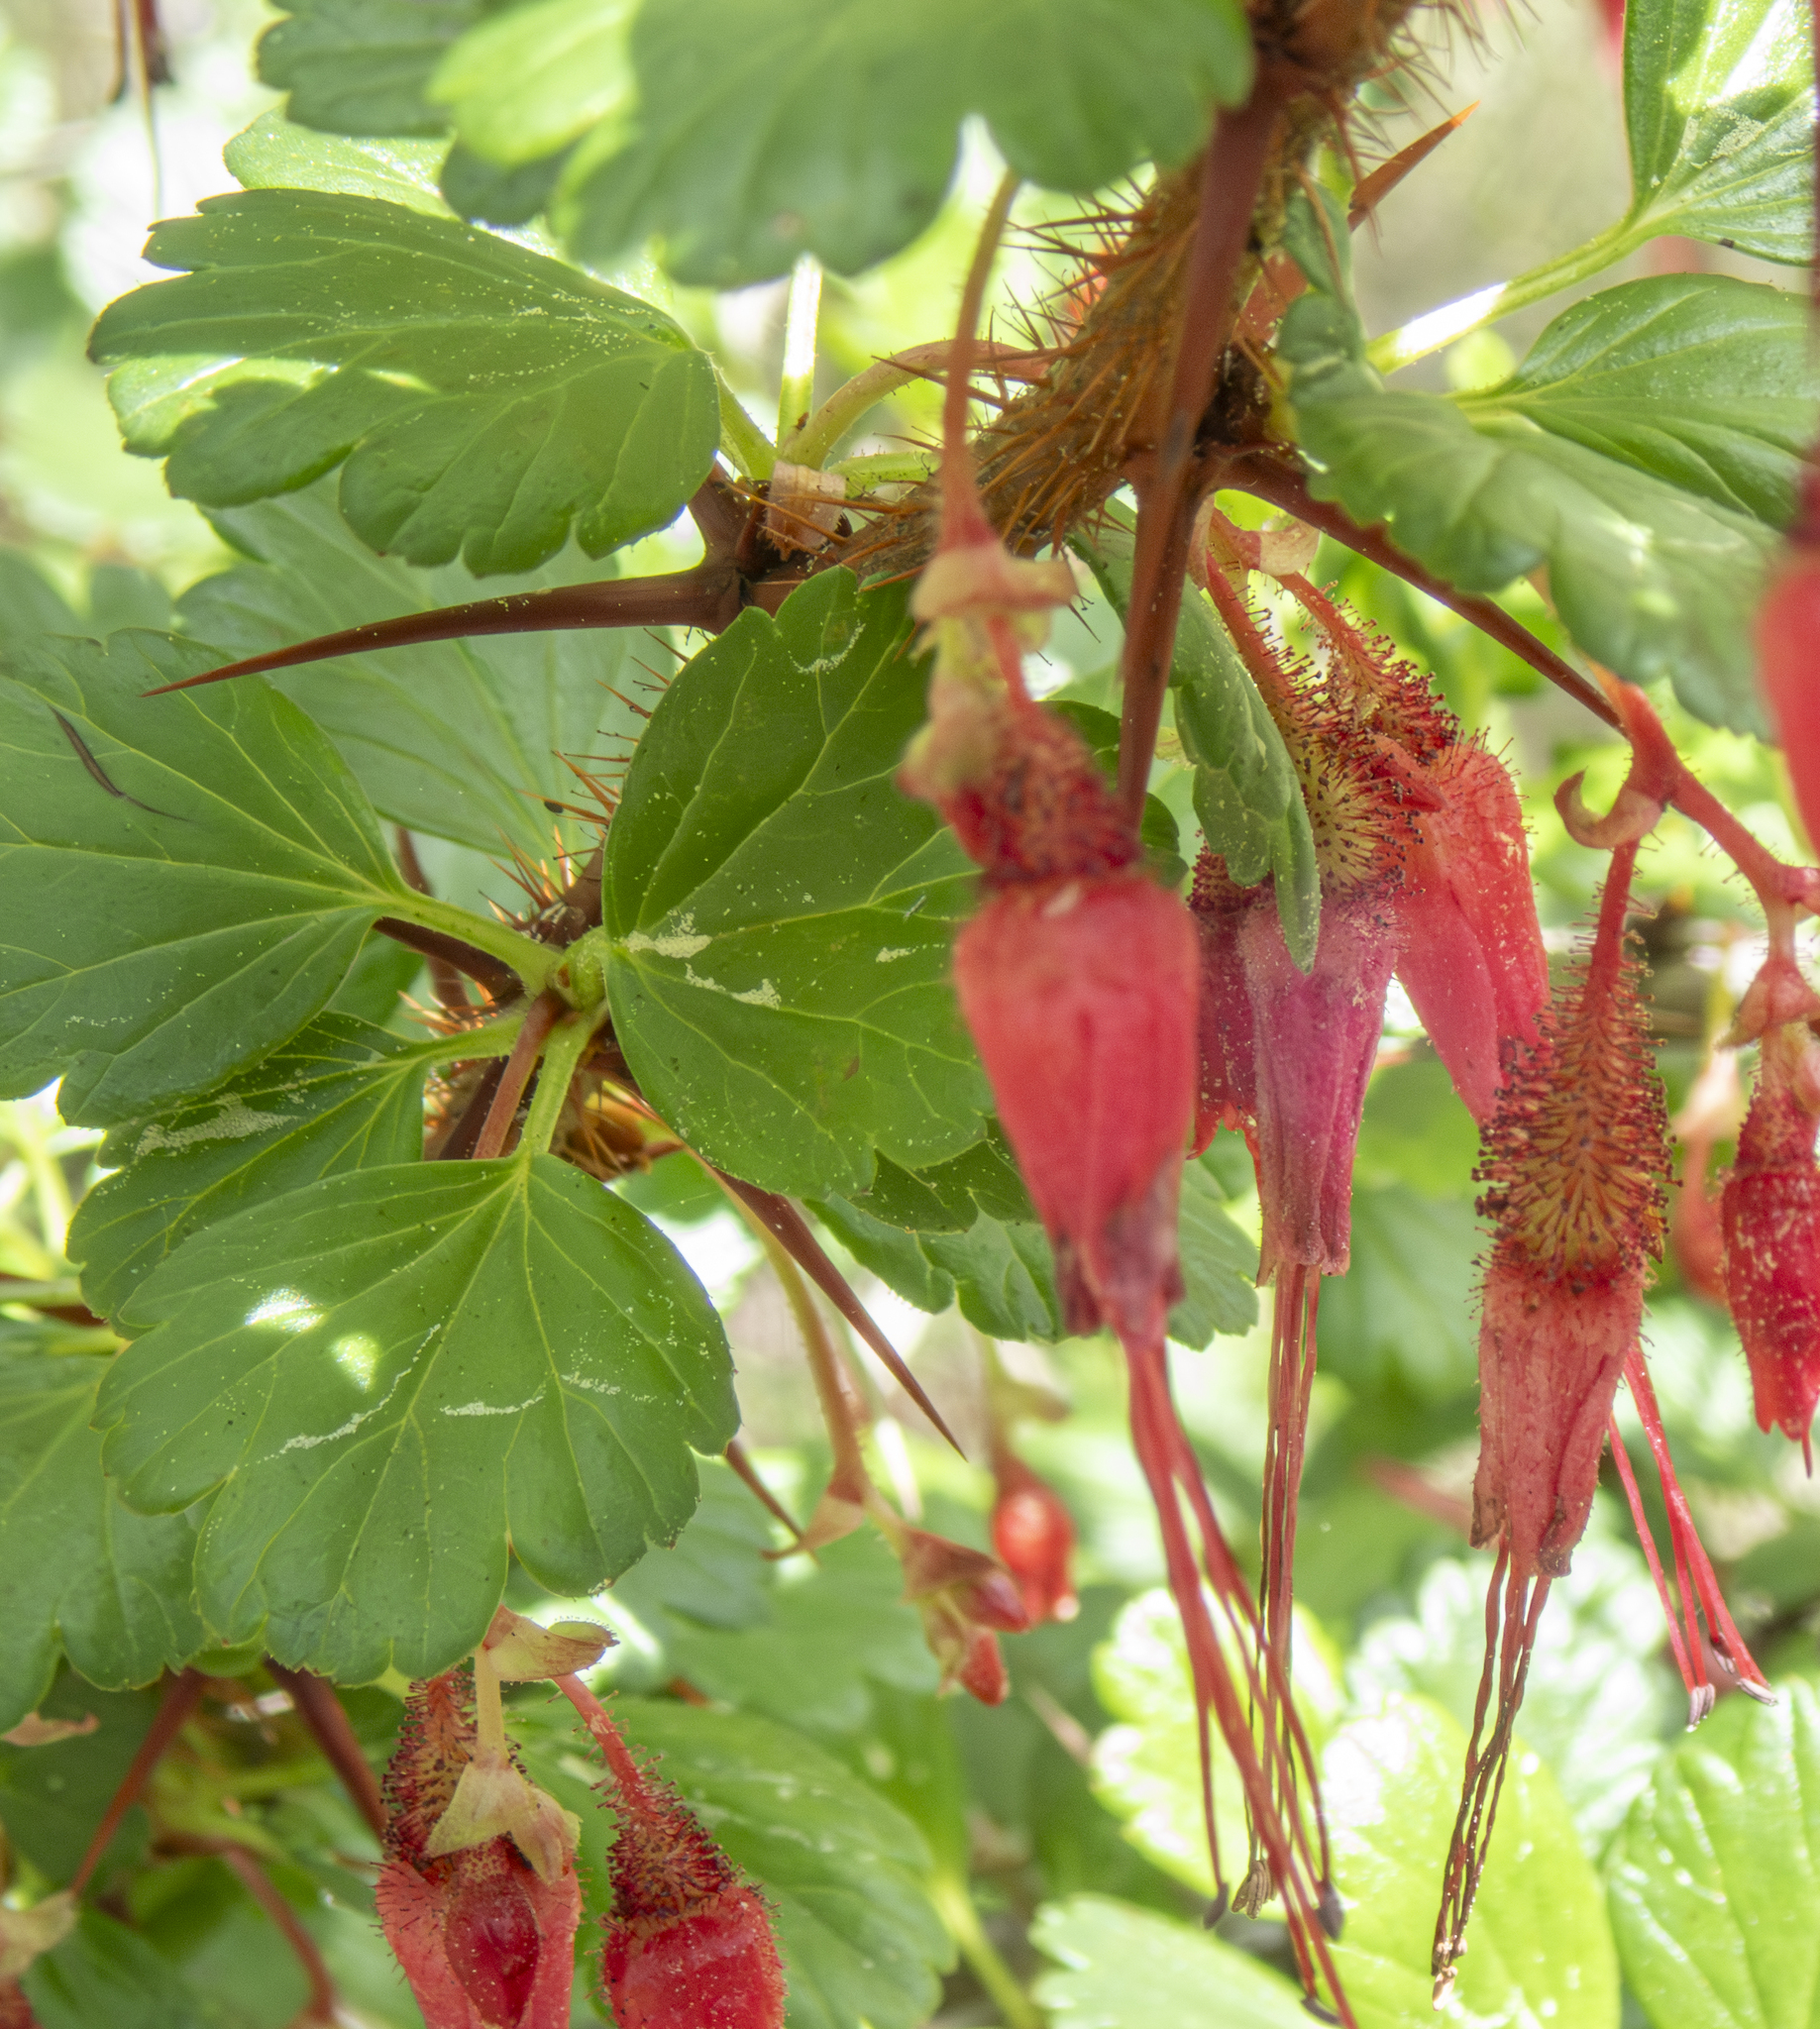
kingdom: Plantae
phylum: Tracheophyta
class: Magnoliopsida
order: Saxifragales
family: Grossulariaceae
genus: Ribes
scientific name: Ribes speciosum
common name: Fuchsia-flower gooseberry
